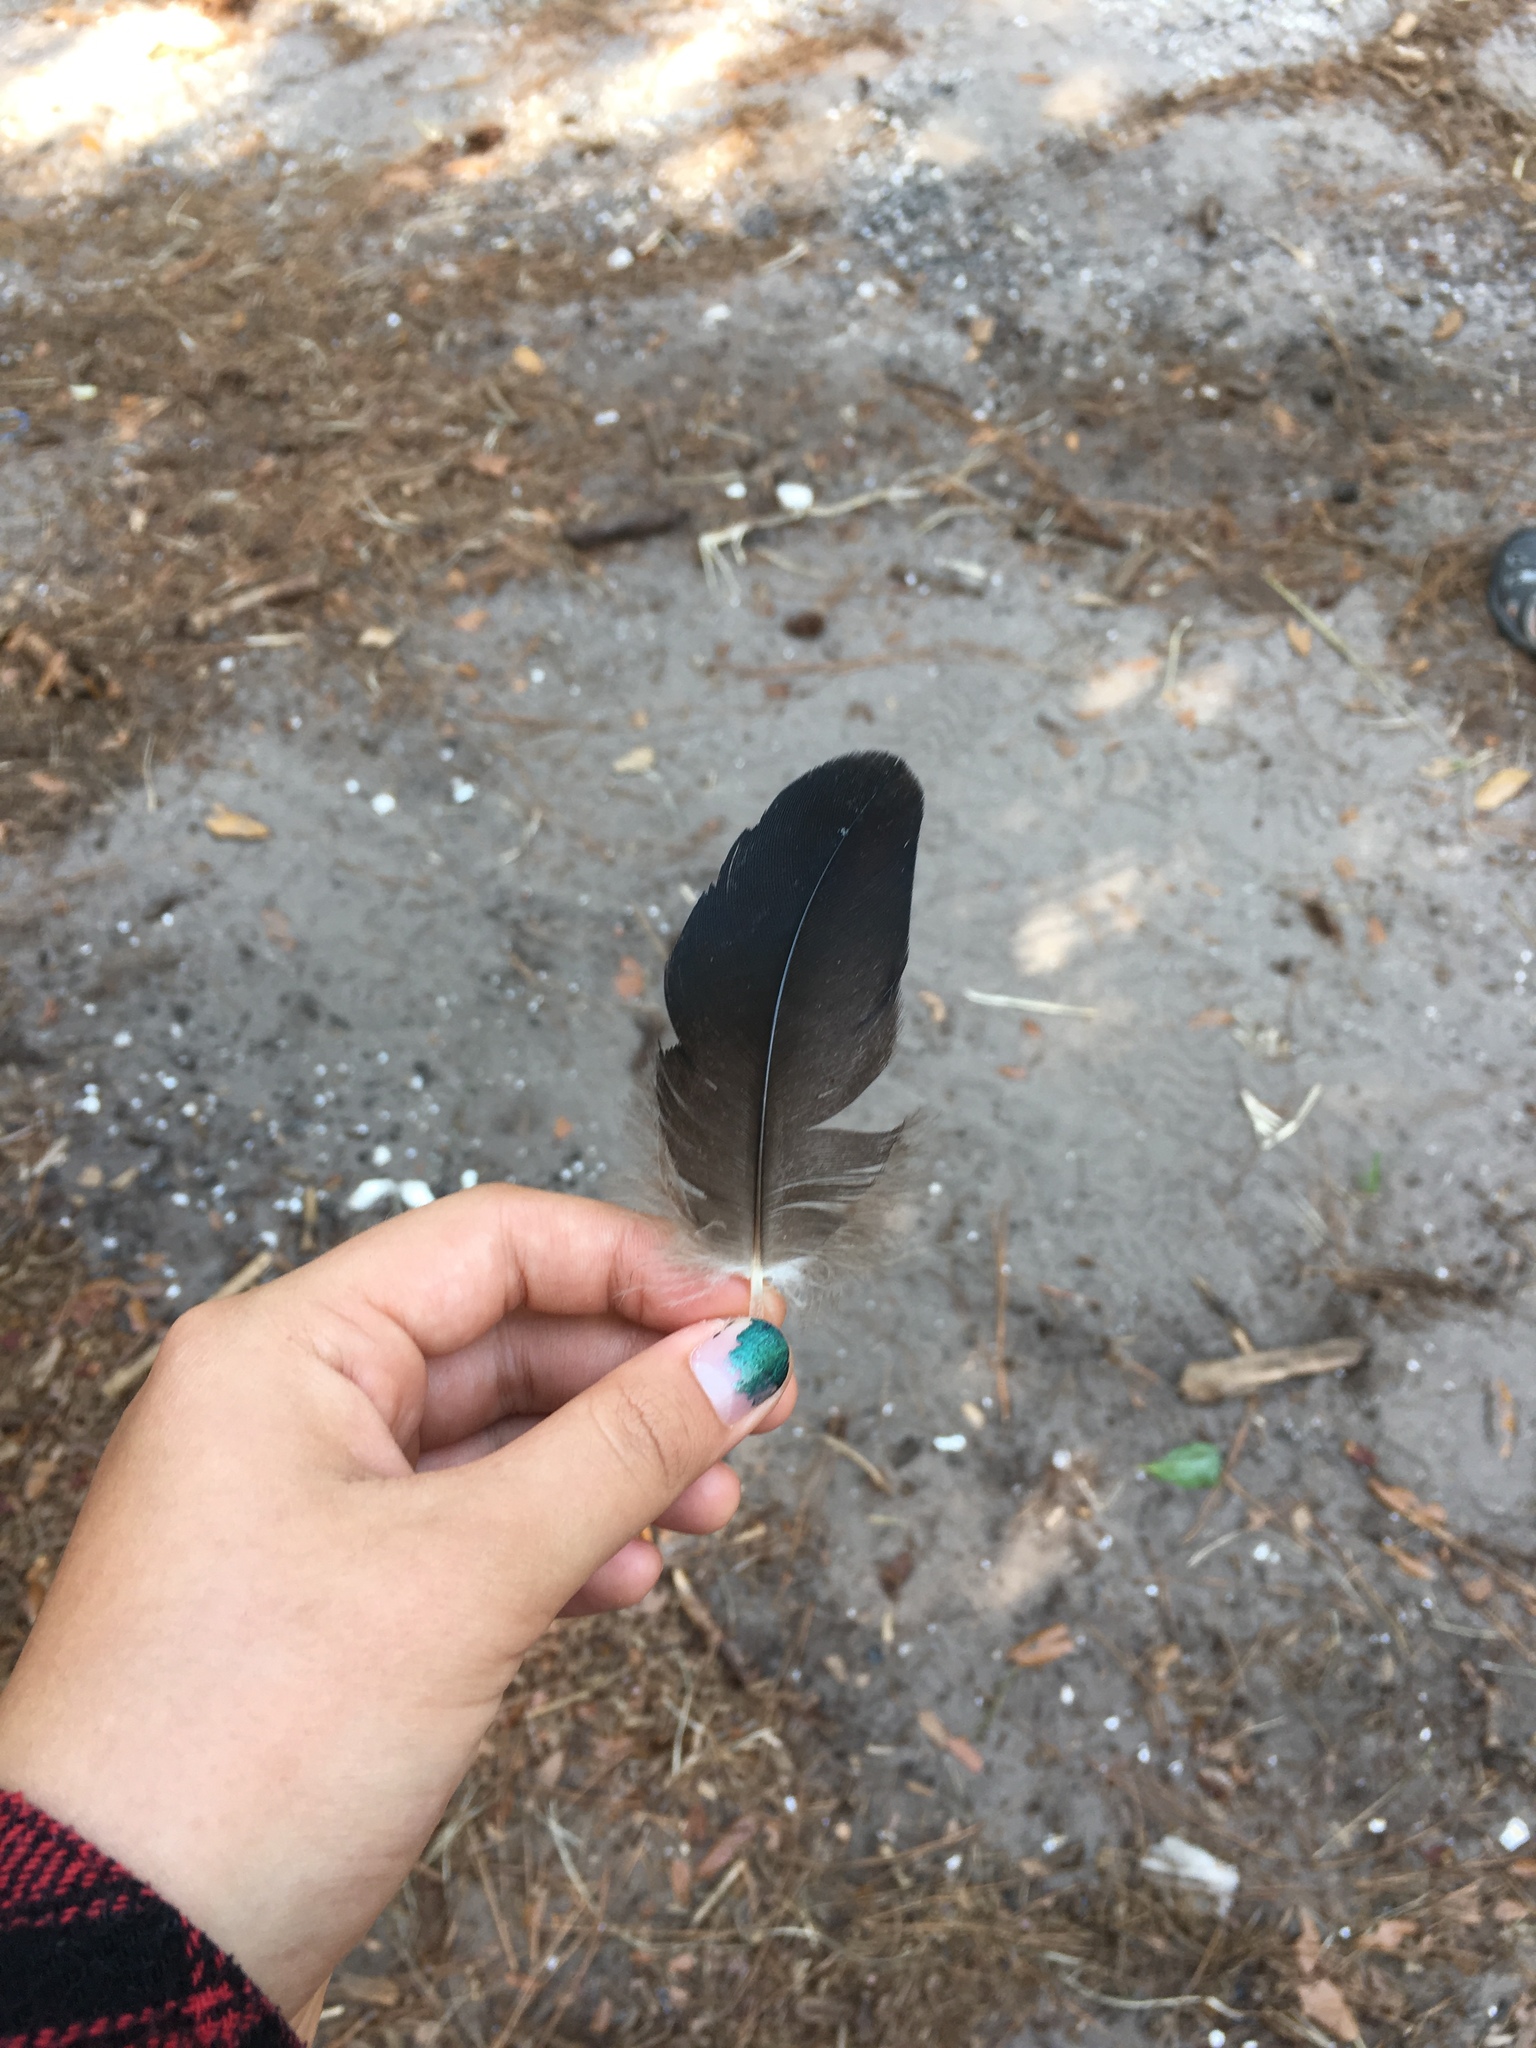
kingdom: Animalia
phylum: Chordata
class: Aves
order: Accipitriformes
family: Cathartidae
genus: Coragyps
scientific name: Coragyps atratus
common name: Black vulture
